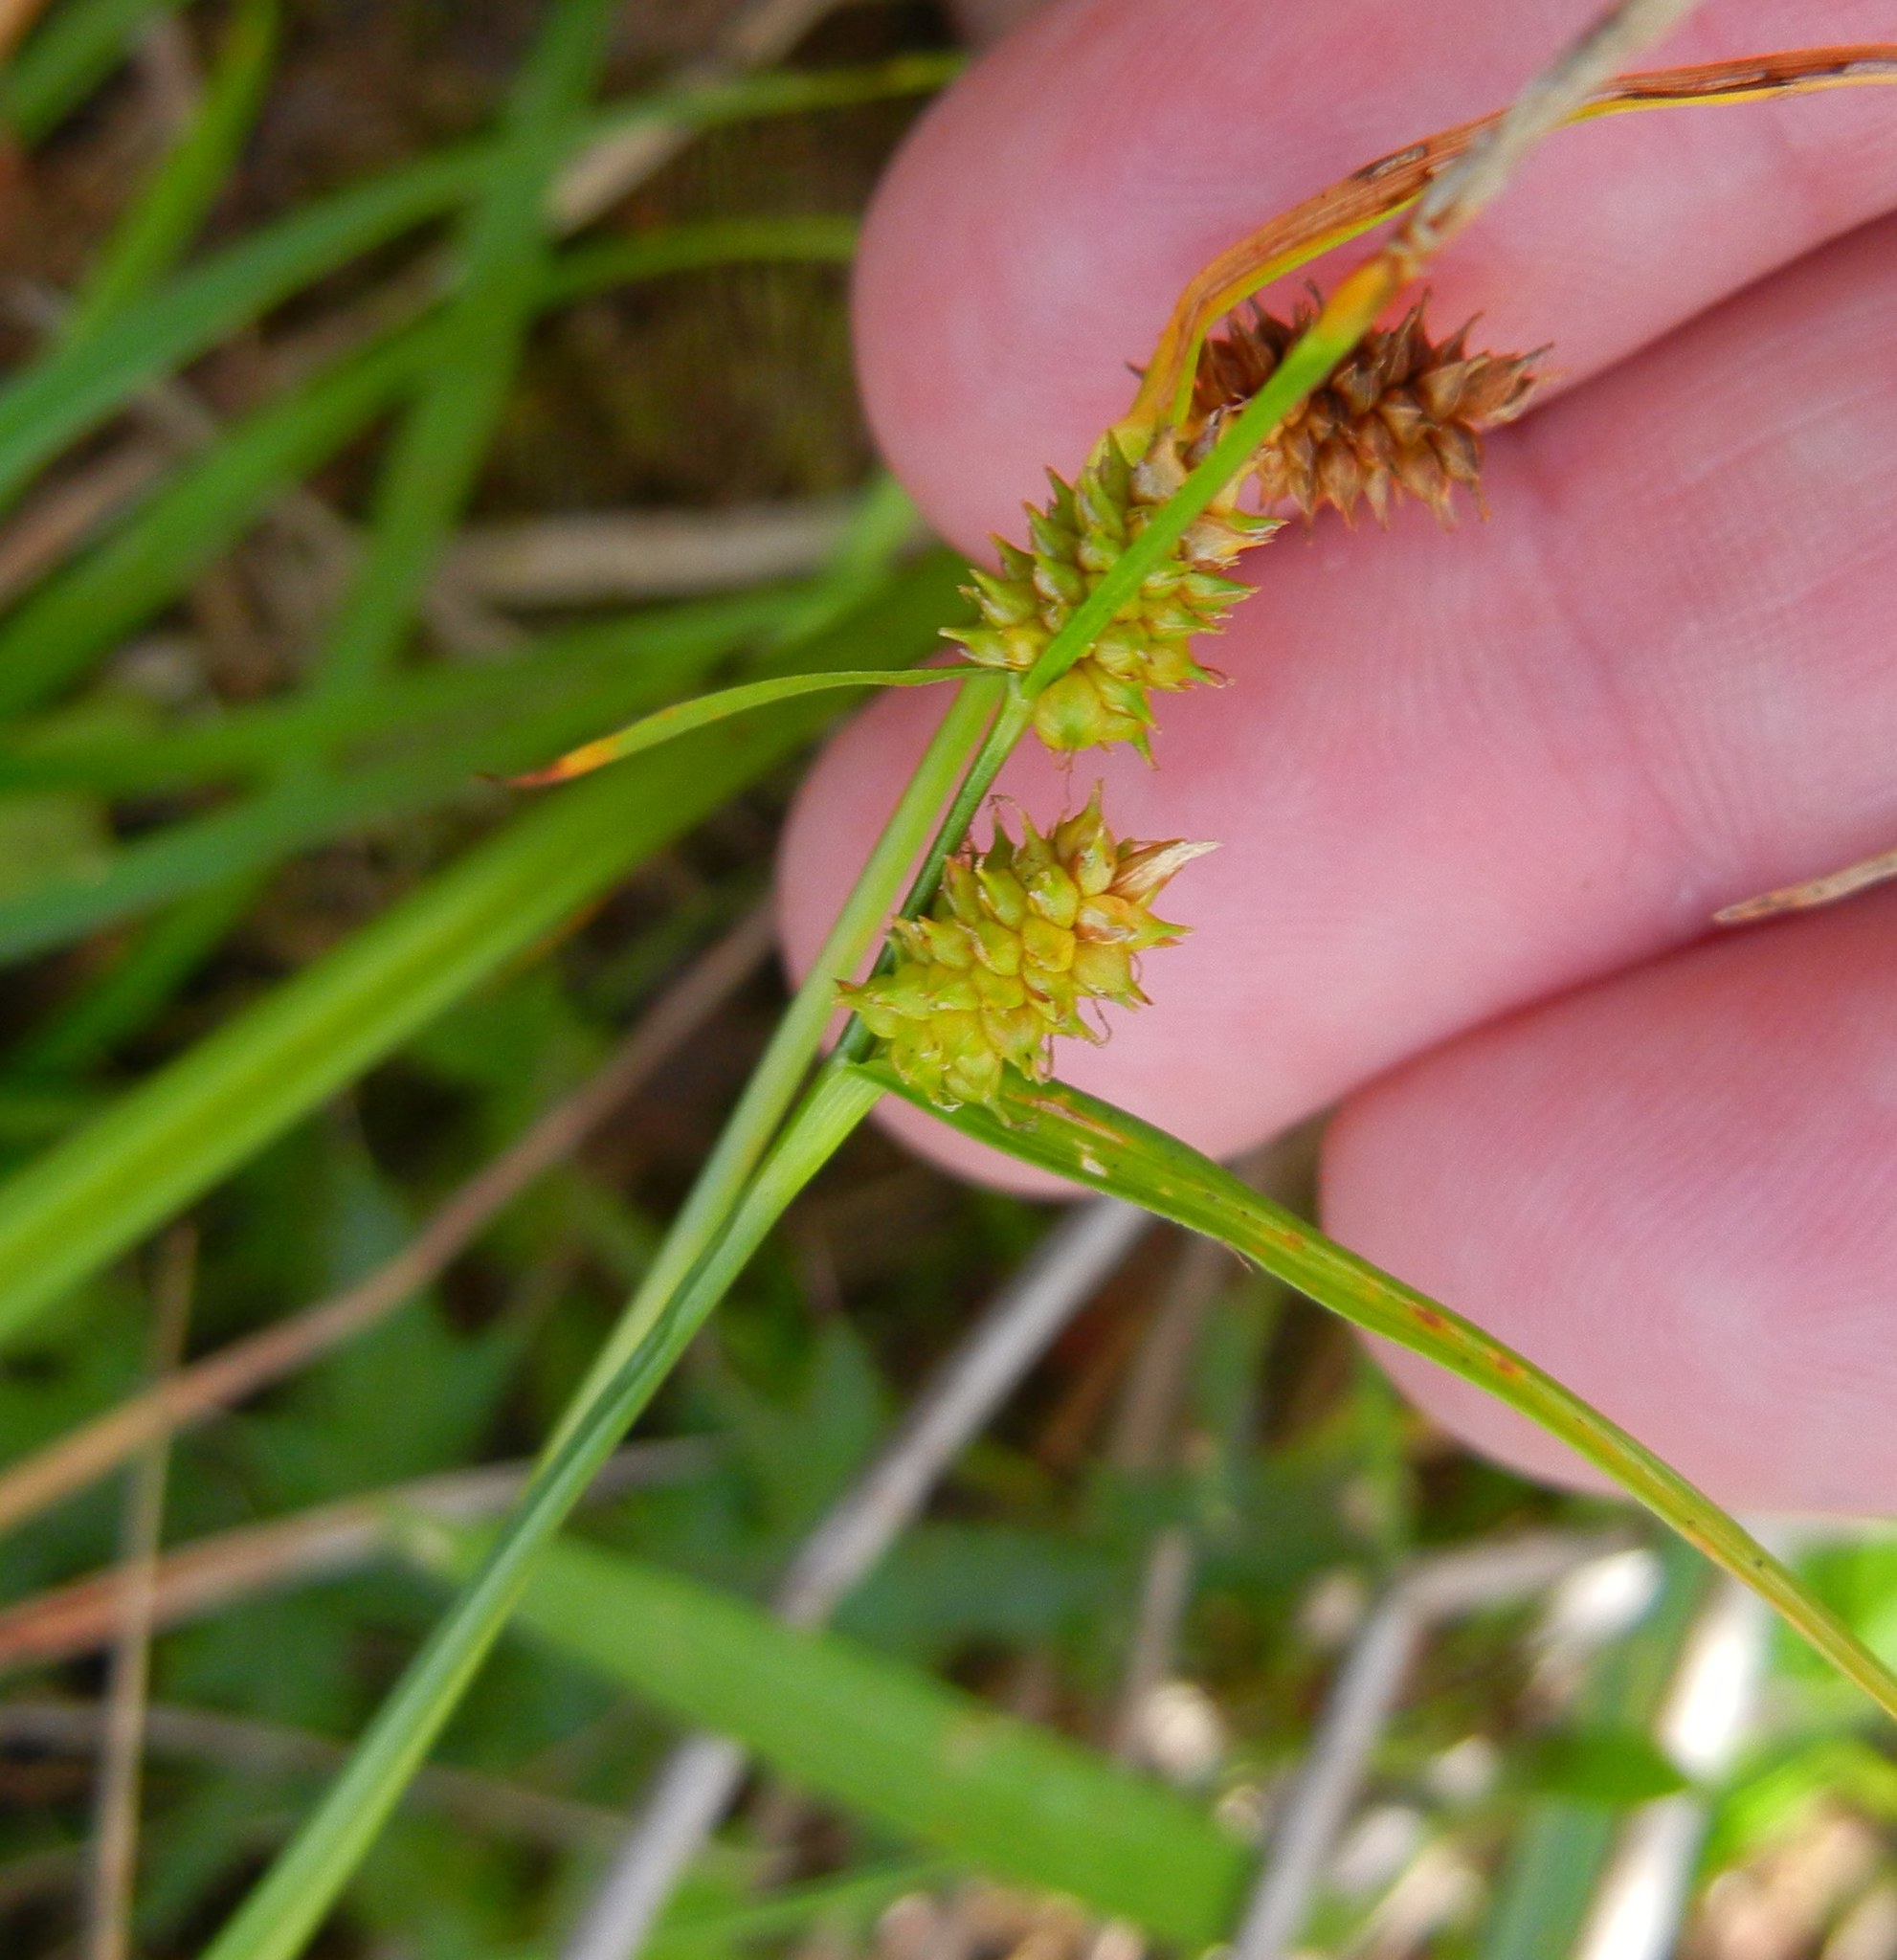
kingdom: Plantae
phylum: Tracheophyta
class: Liliopsida
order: Poales
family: Cyperaceae
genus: Carex
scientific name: Carex
